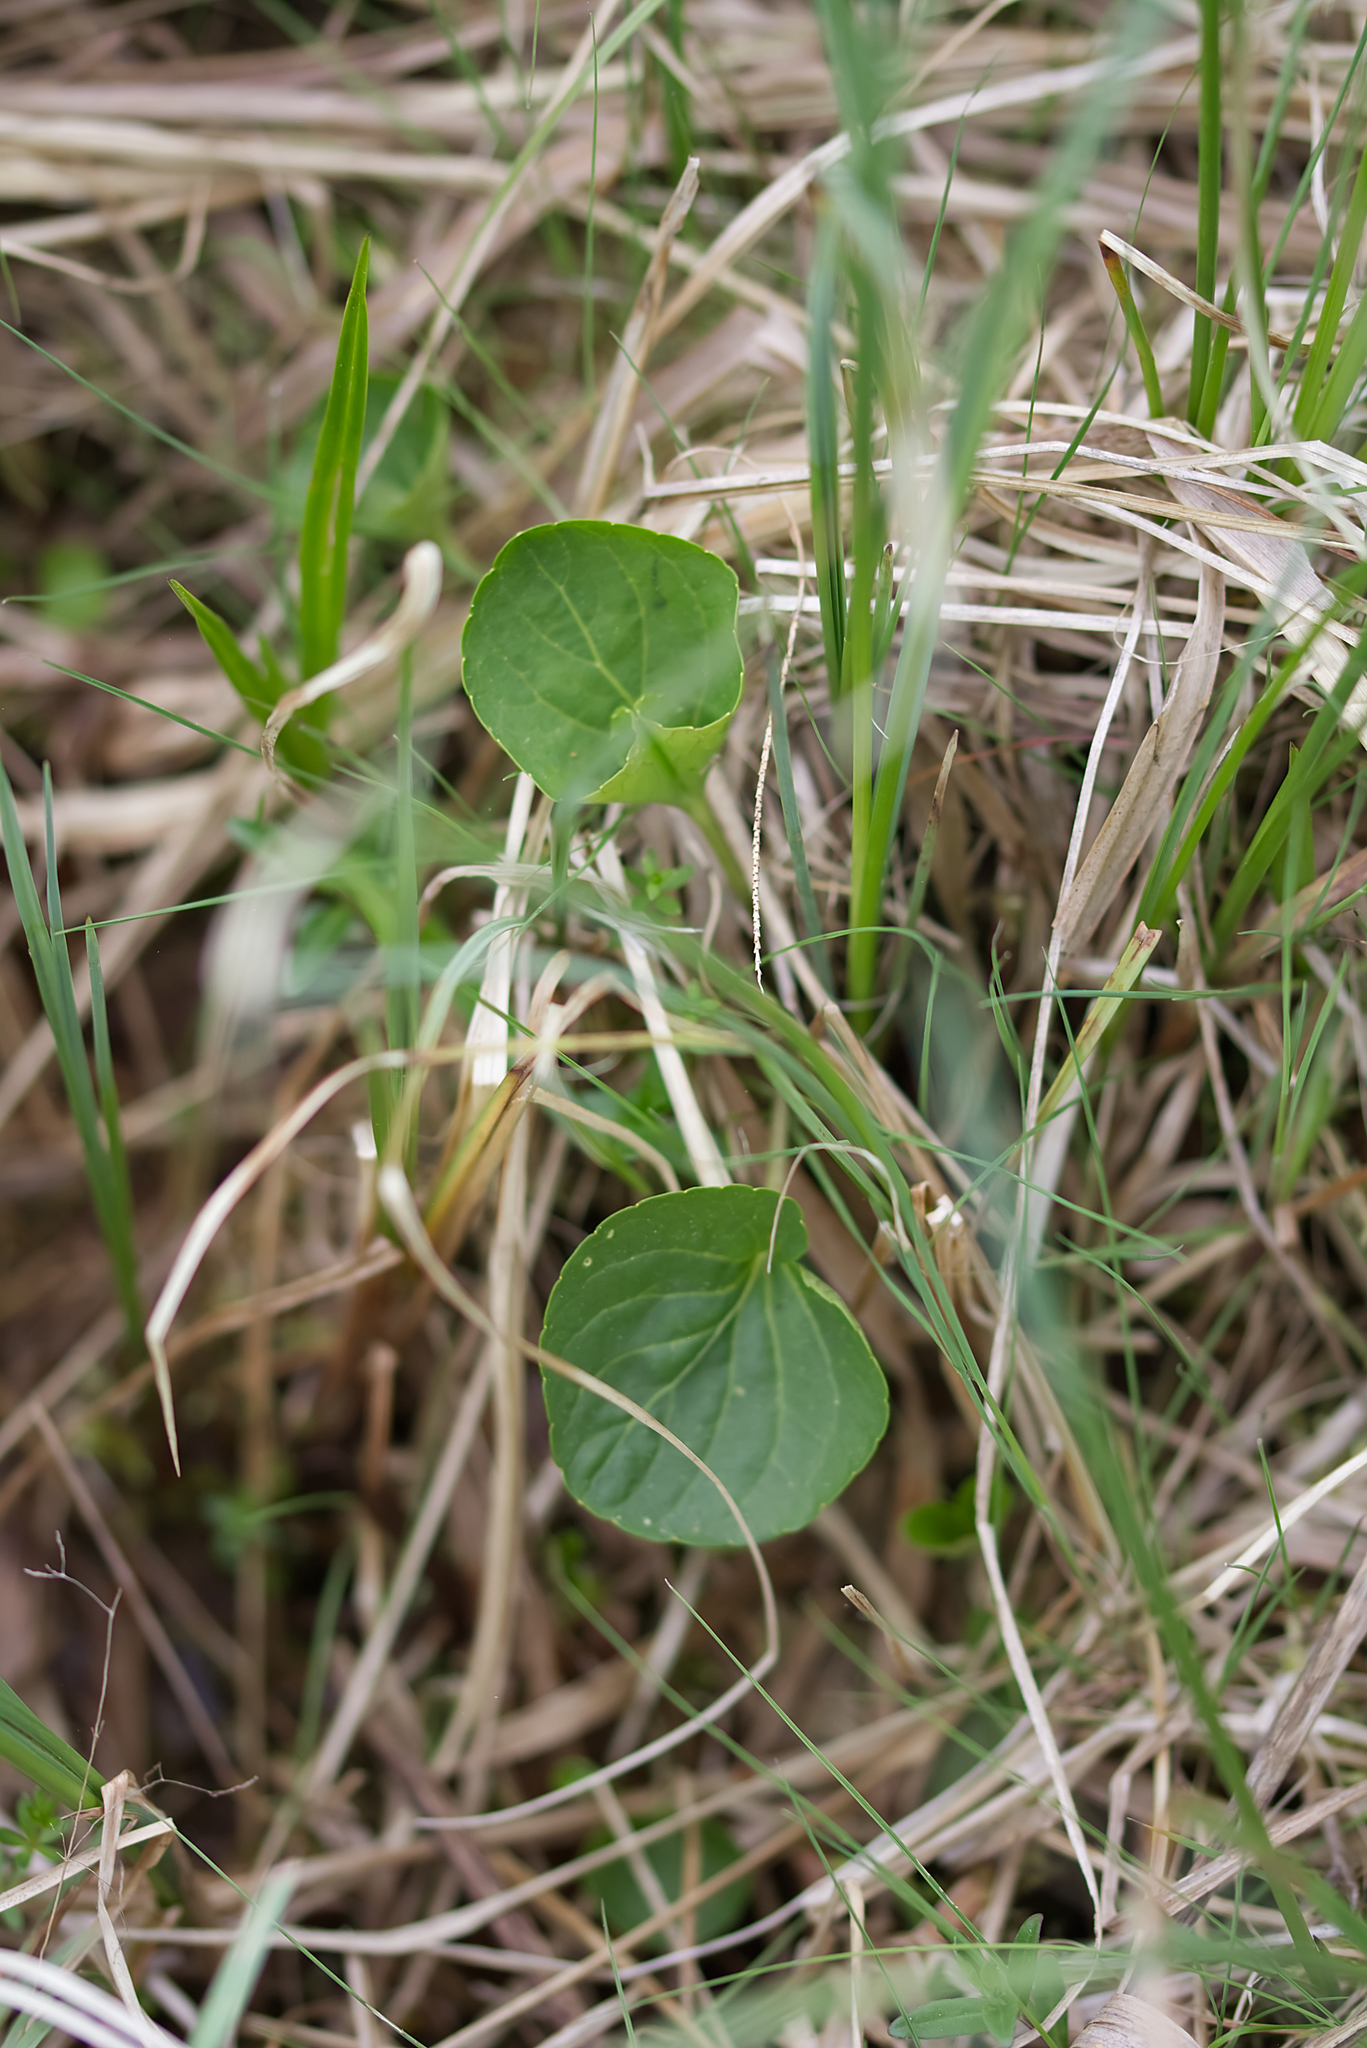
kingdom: Plantae
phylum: Tracheophyta
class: Magnoliopsida
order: Malpighiales
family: Violaceae
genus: Viola
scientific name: Viola palustris
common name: Marsh violet
